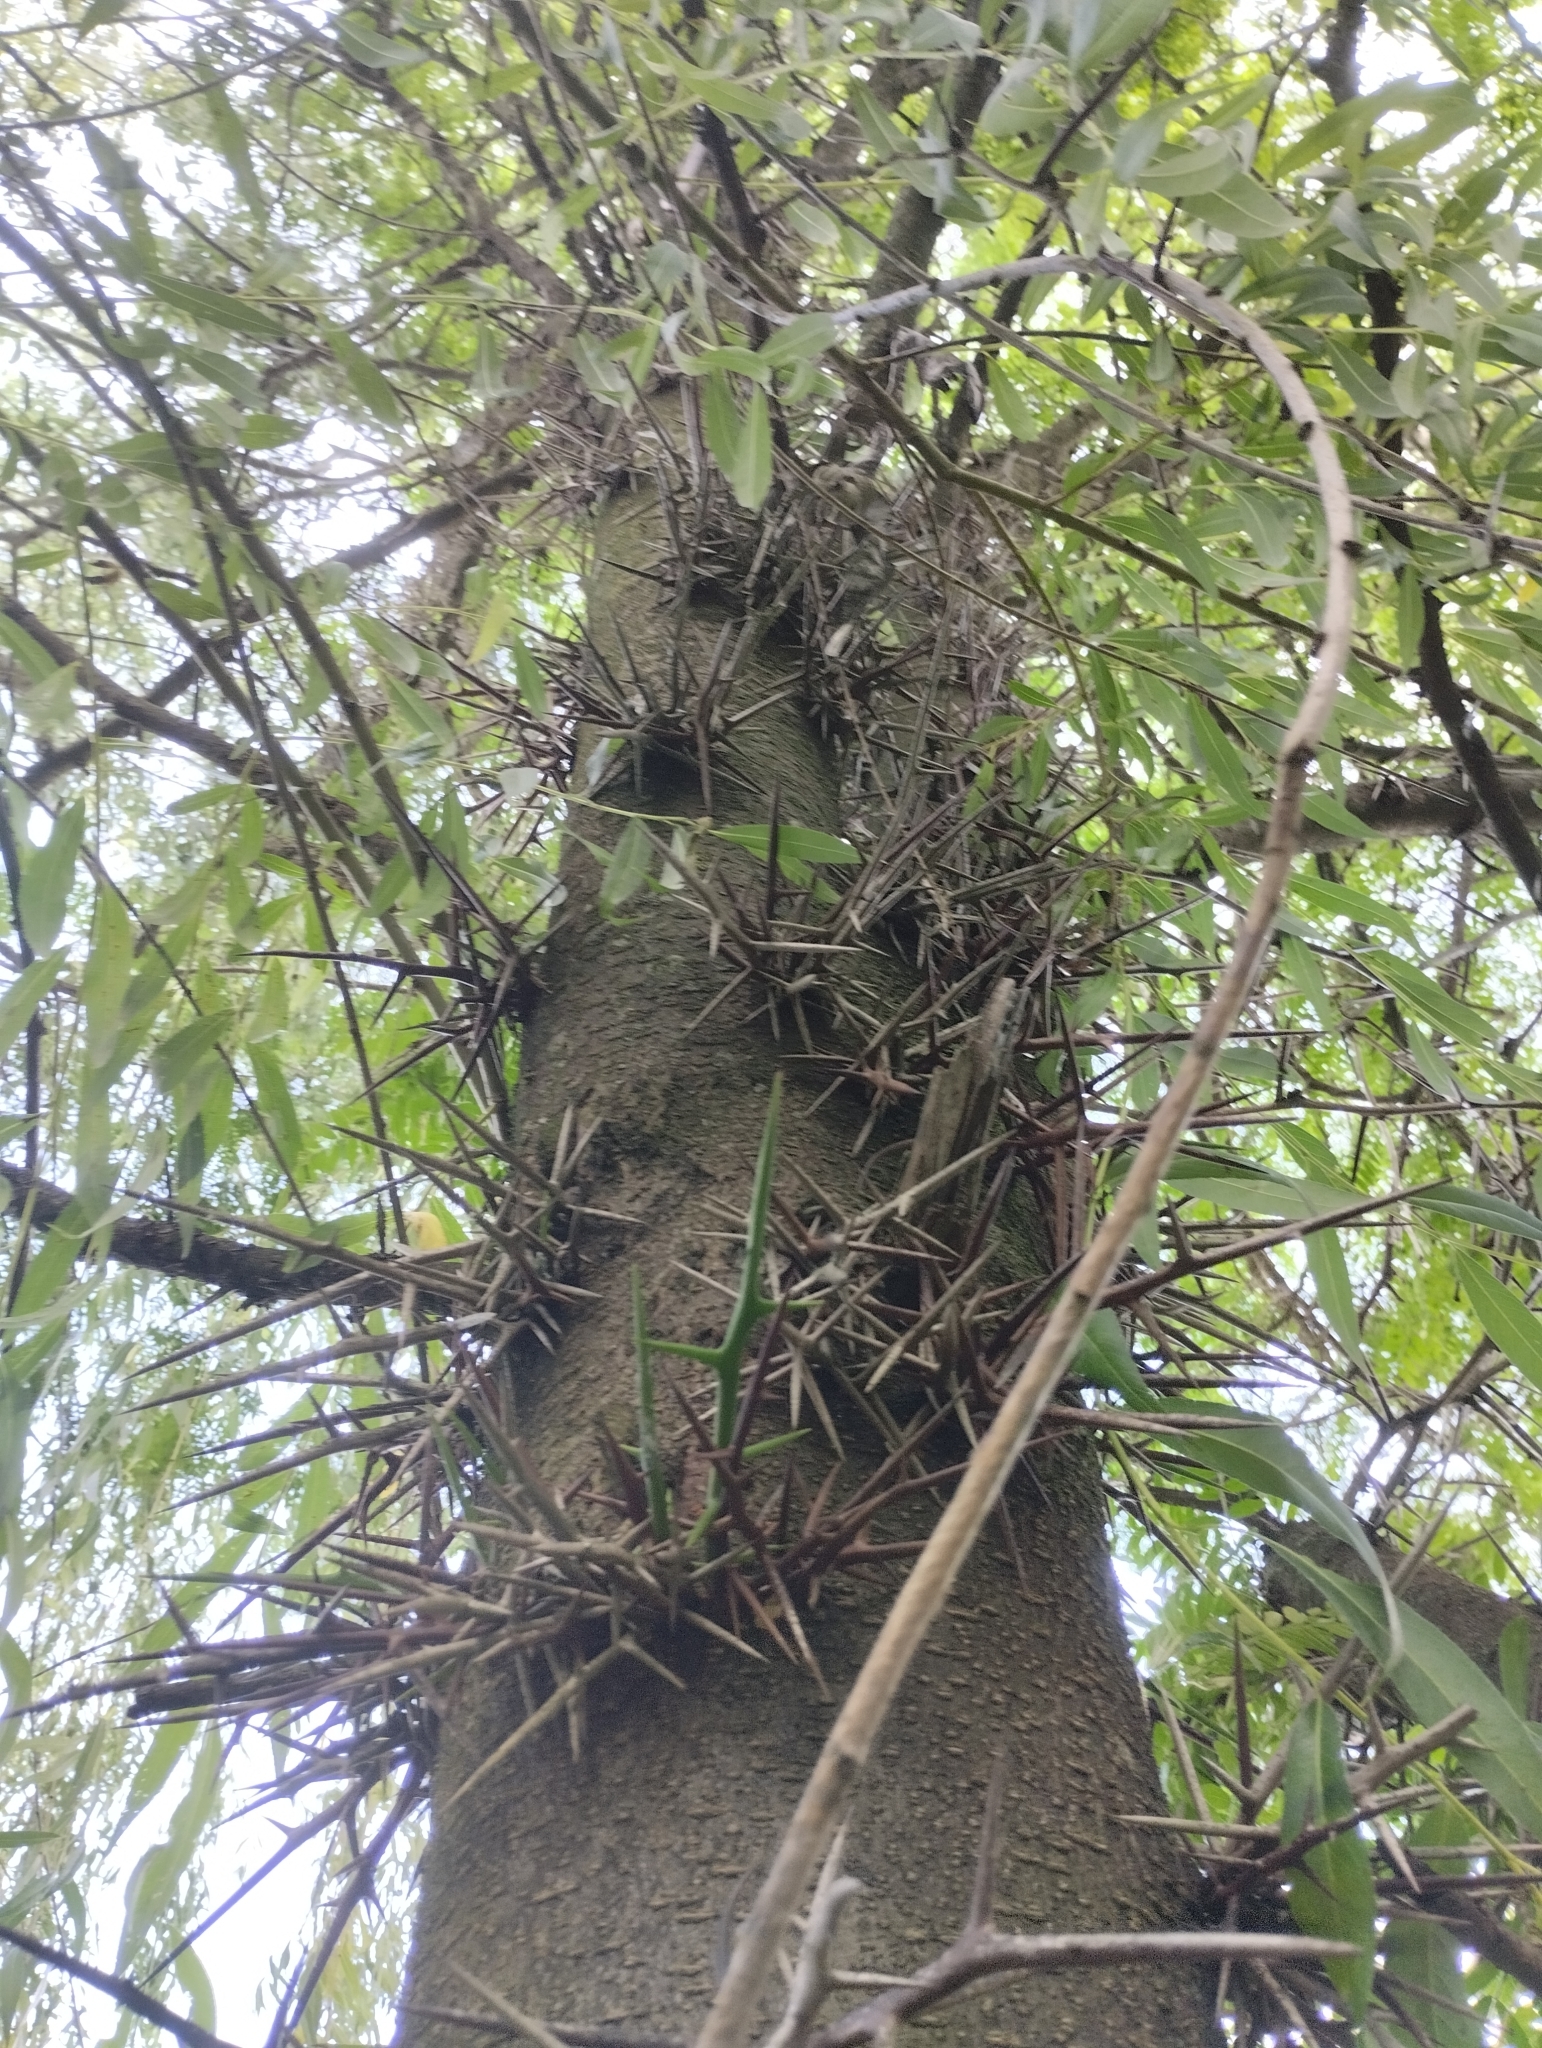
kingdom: Plantae
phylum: Tracheophyta
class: Magnoliopsida
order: Fabales
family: Fabaceae
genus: Gleditsia
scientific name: Gleditsia triacanthos
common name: Common honeylocust
